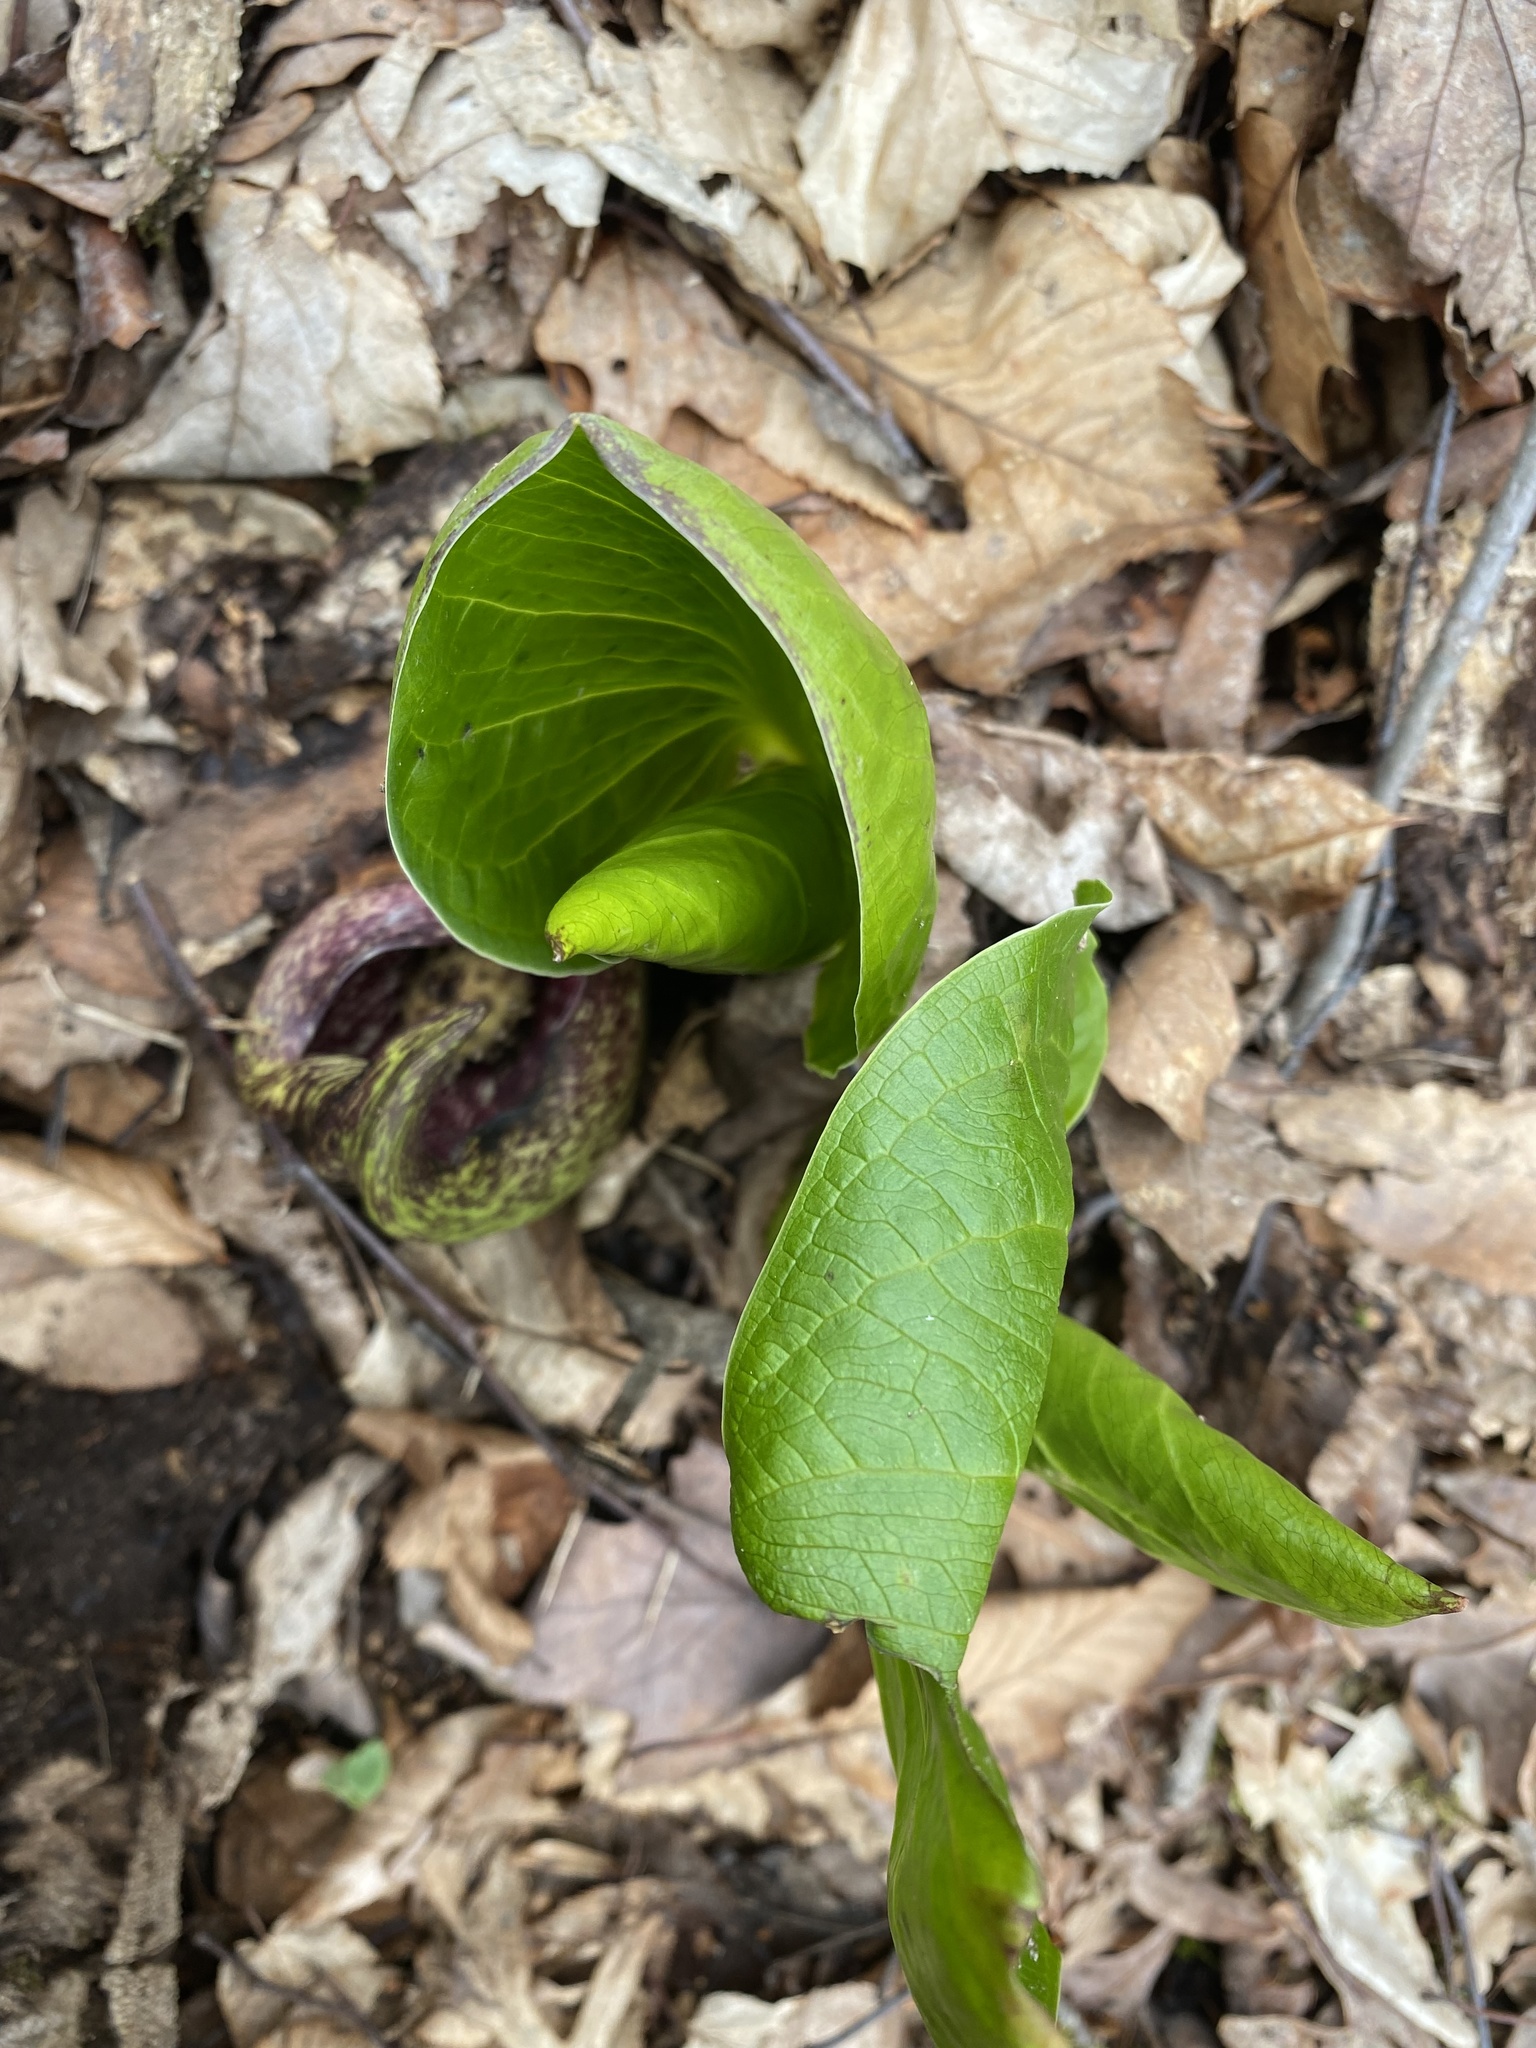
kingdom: Plantae
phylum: Tracheophyta
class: Liliopsida
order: Alismatales
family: Araceae
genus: Symplocarpus
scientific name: Symplocarpus foetidus
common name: Eastern skunk cabbage
